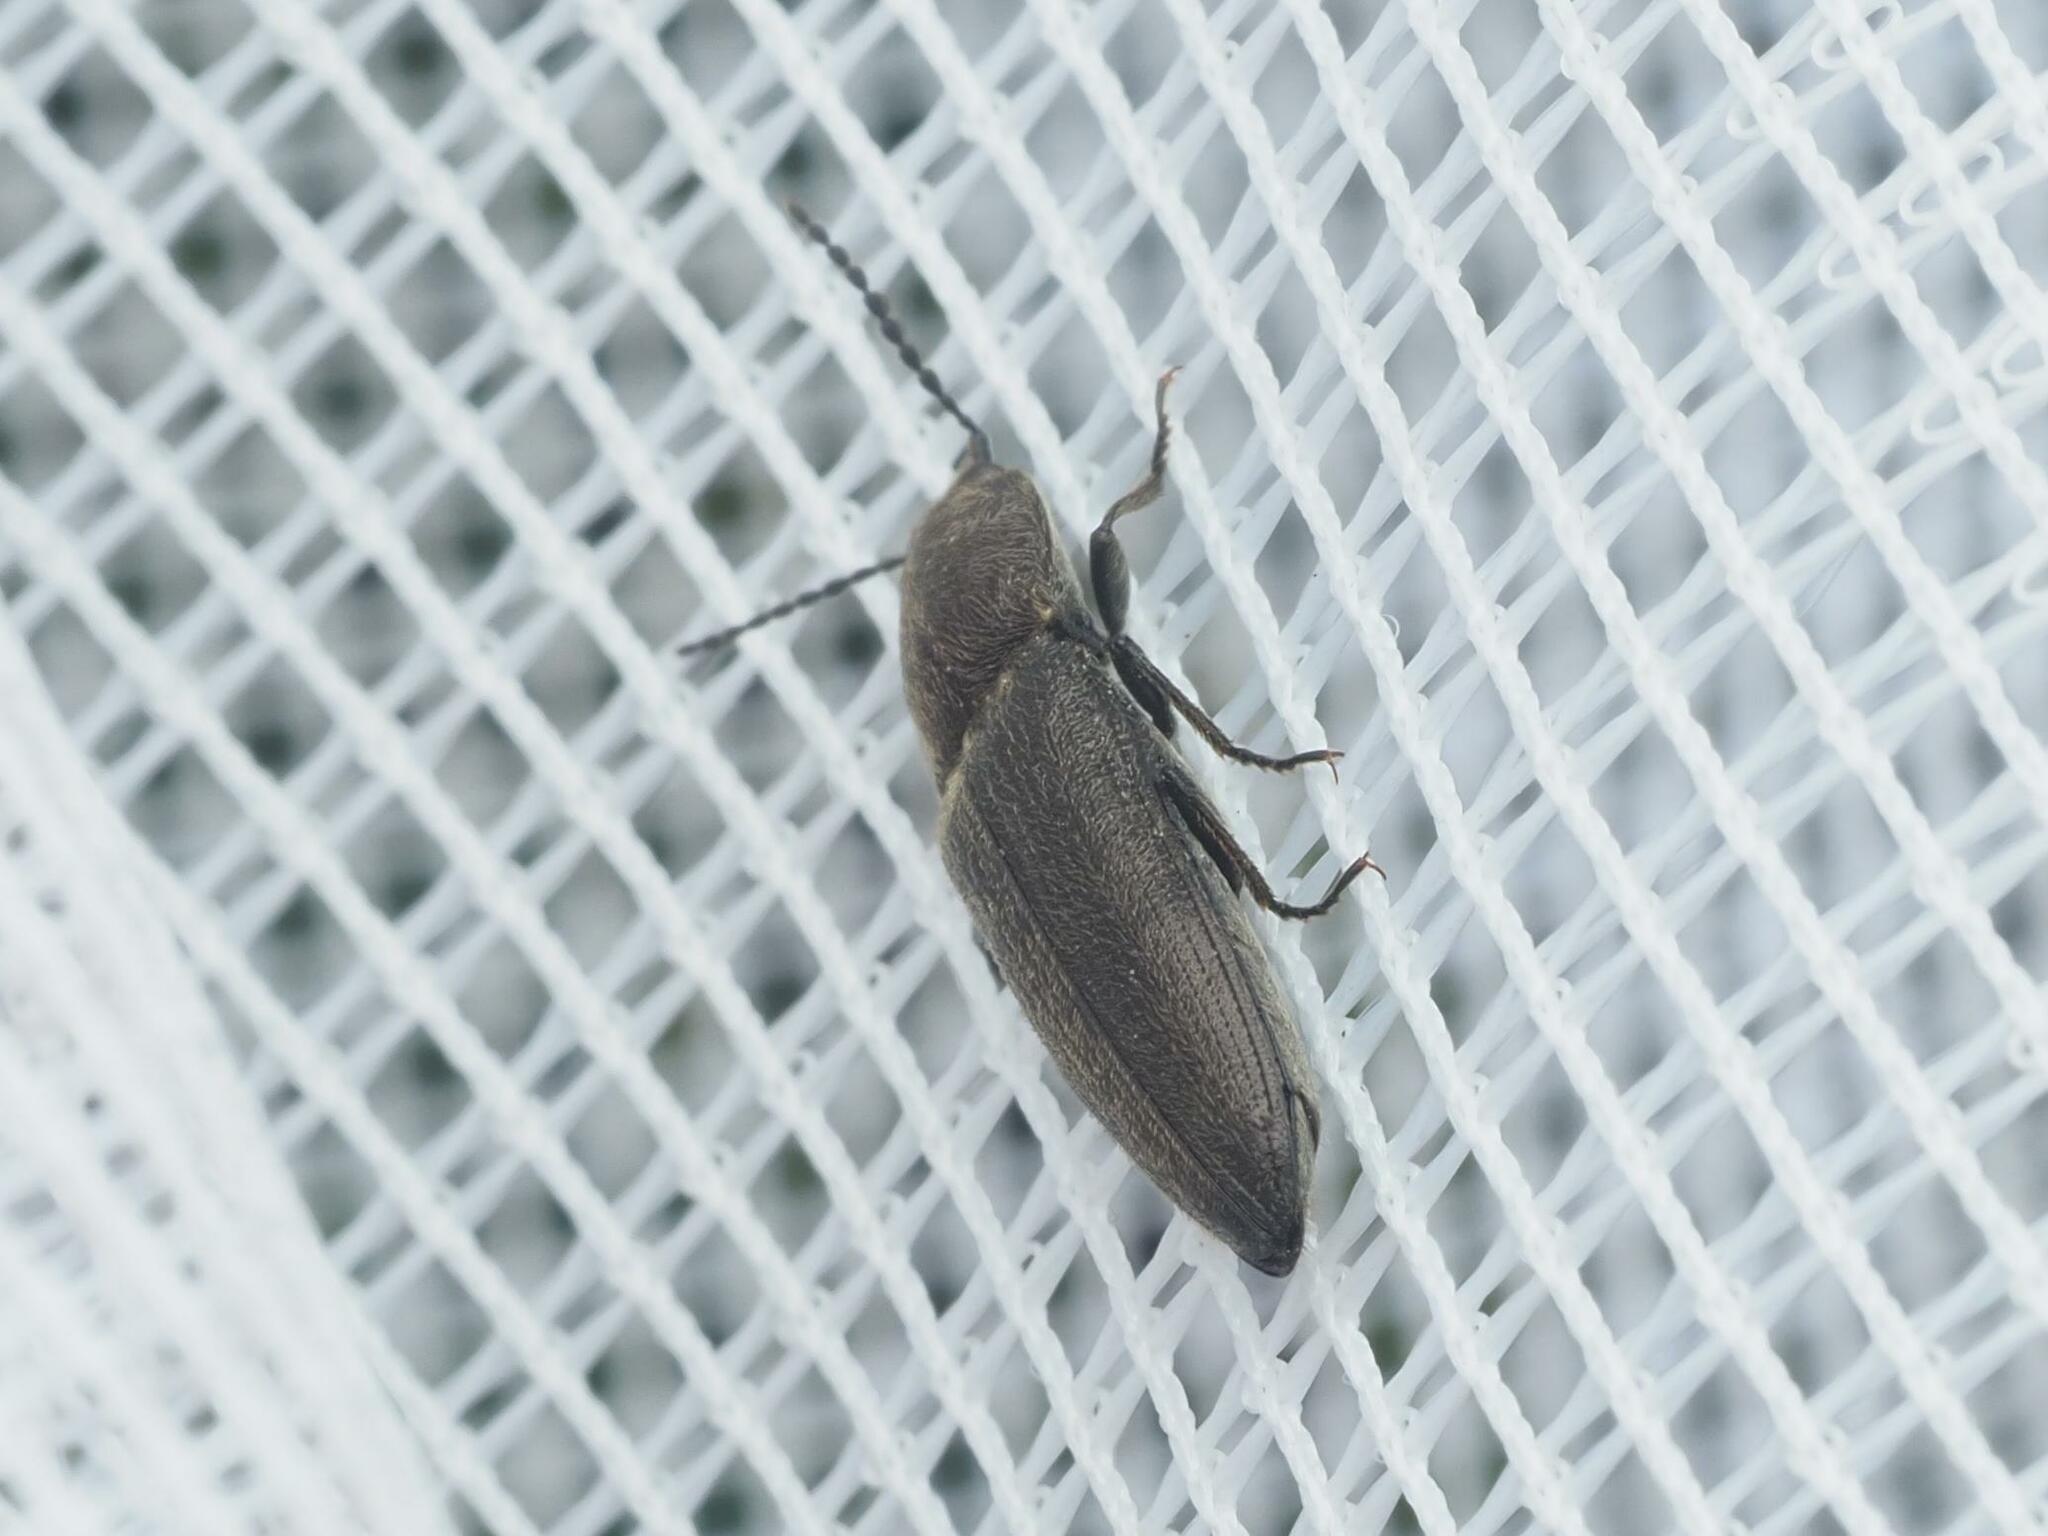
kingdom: Animalia
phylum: Arthropoda
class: Insecta
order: Coleoptera
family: Elateridae
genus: Cidnopus
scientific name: Cidnopus pilosus
